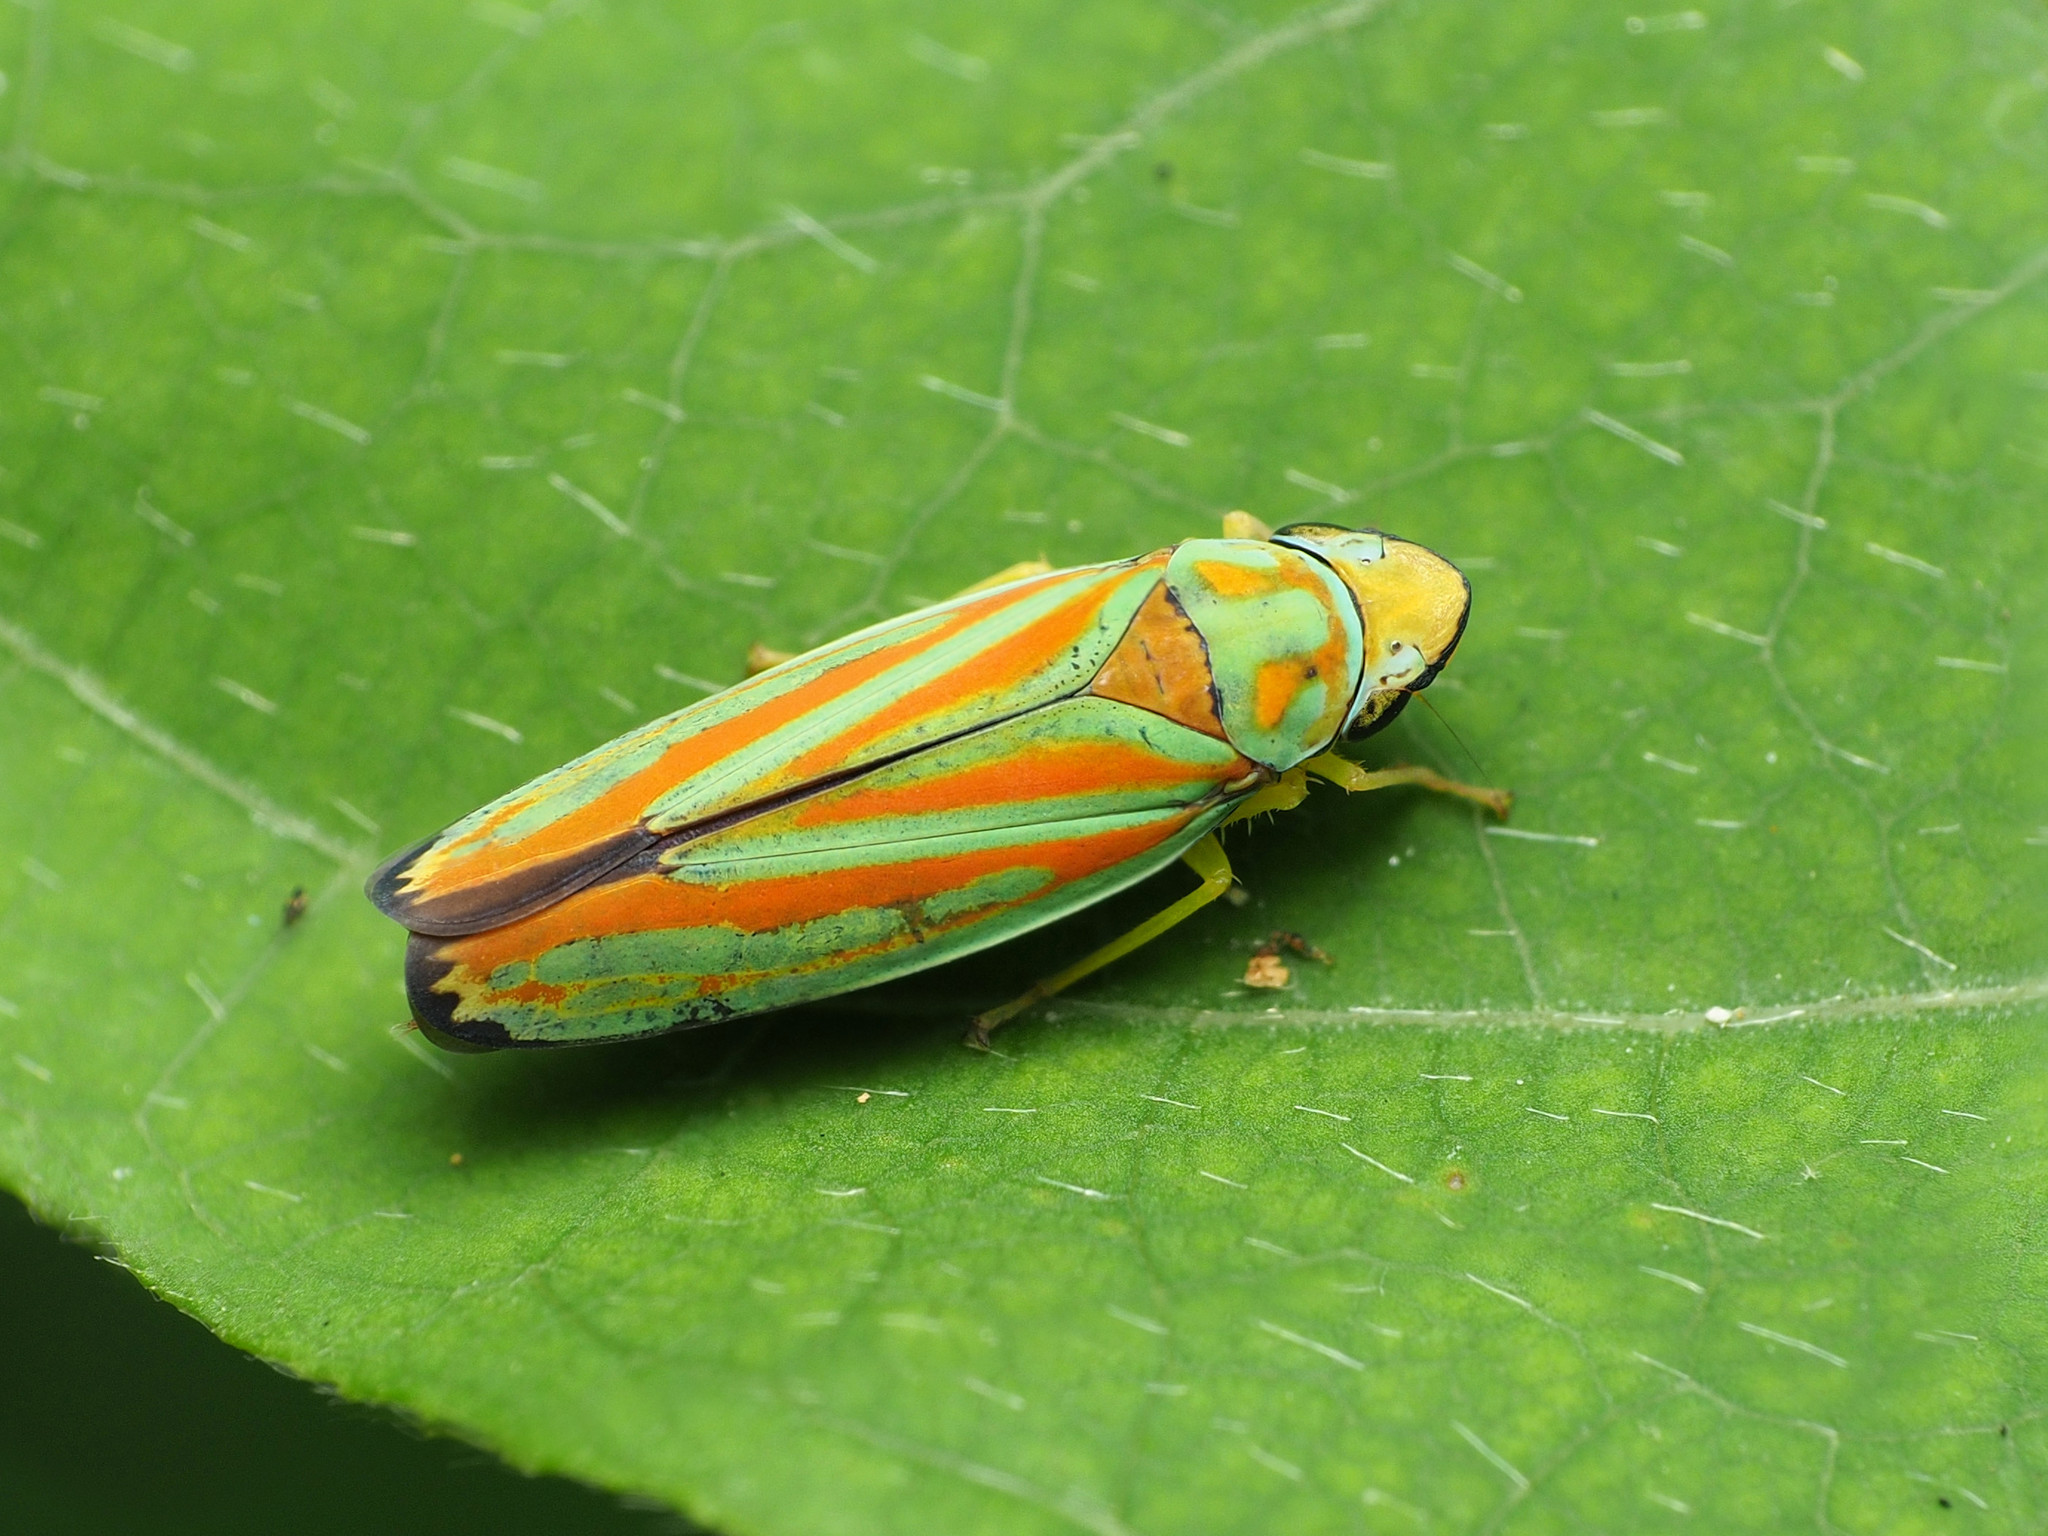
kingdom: Animalia
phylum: Arthropoda
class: Insecta
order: Hemiptera
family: Cicadellidae
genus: Graphocephala
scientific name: Graphocephala coccinea
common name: Candy-striped leafhopper
